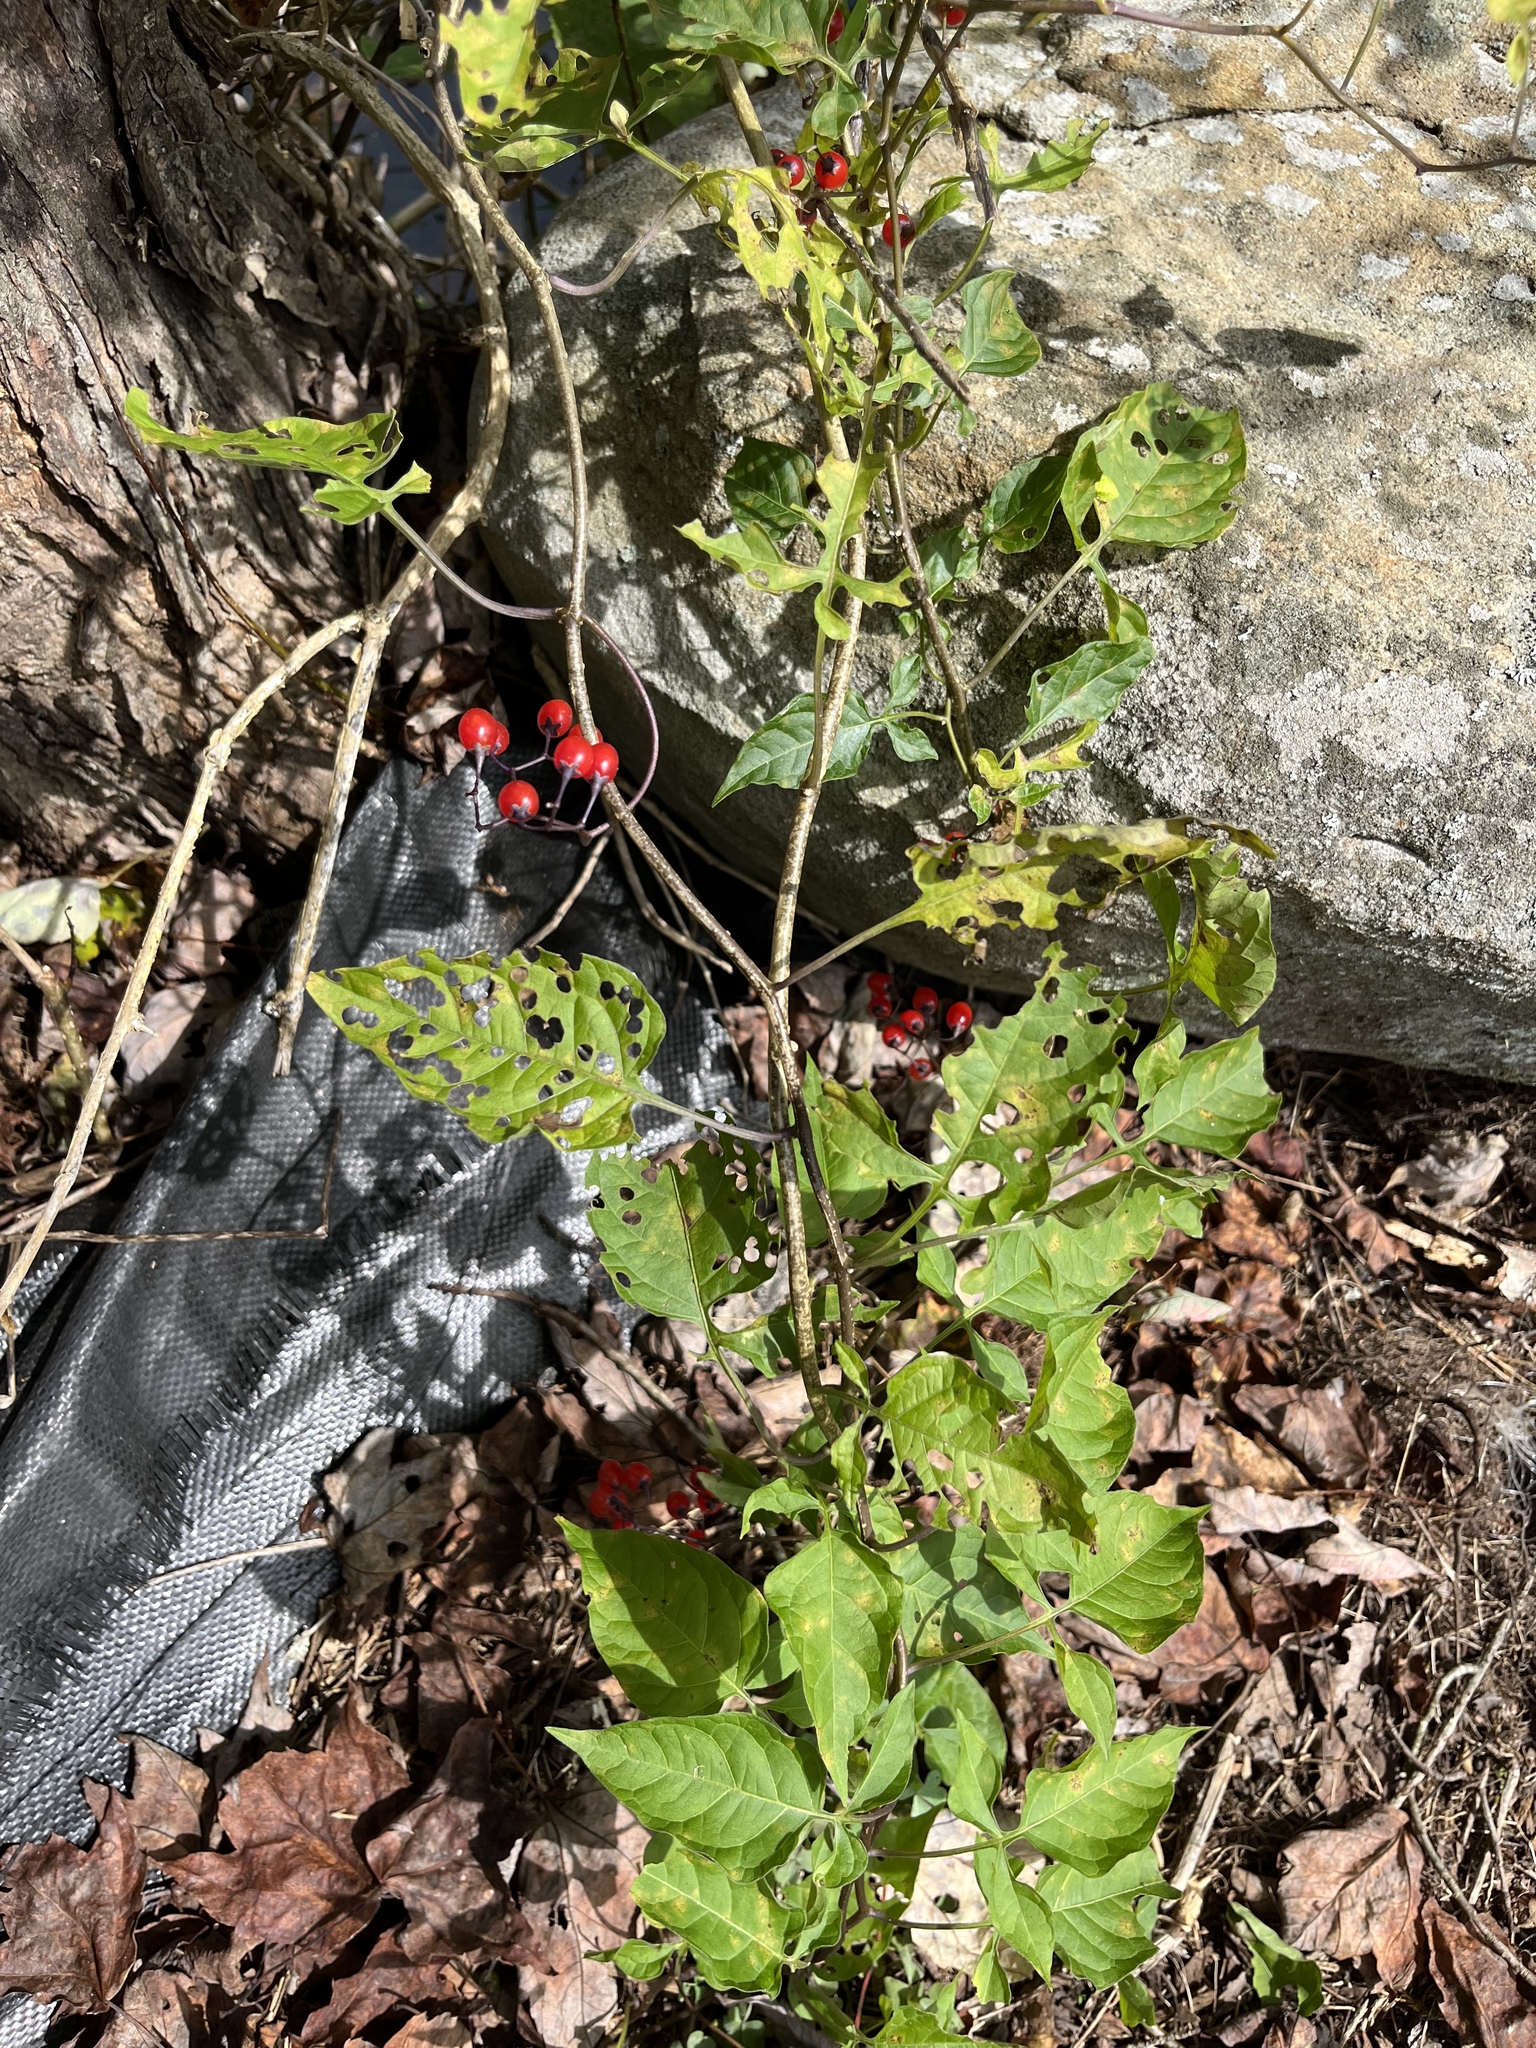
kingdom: Plantae
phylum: Tracheophyta
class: Magnoliopsida
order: Solanales
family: Solanaceae
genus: Solanum
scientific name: Solanum dulcamara
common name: Climbing nightshade
